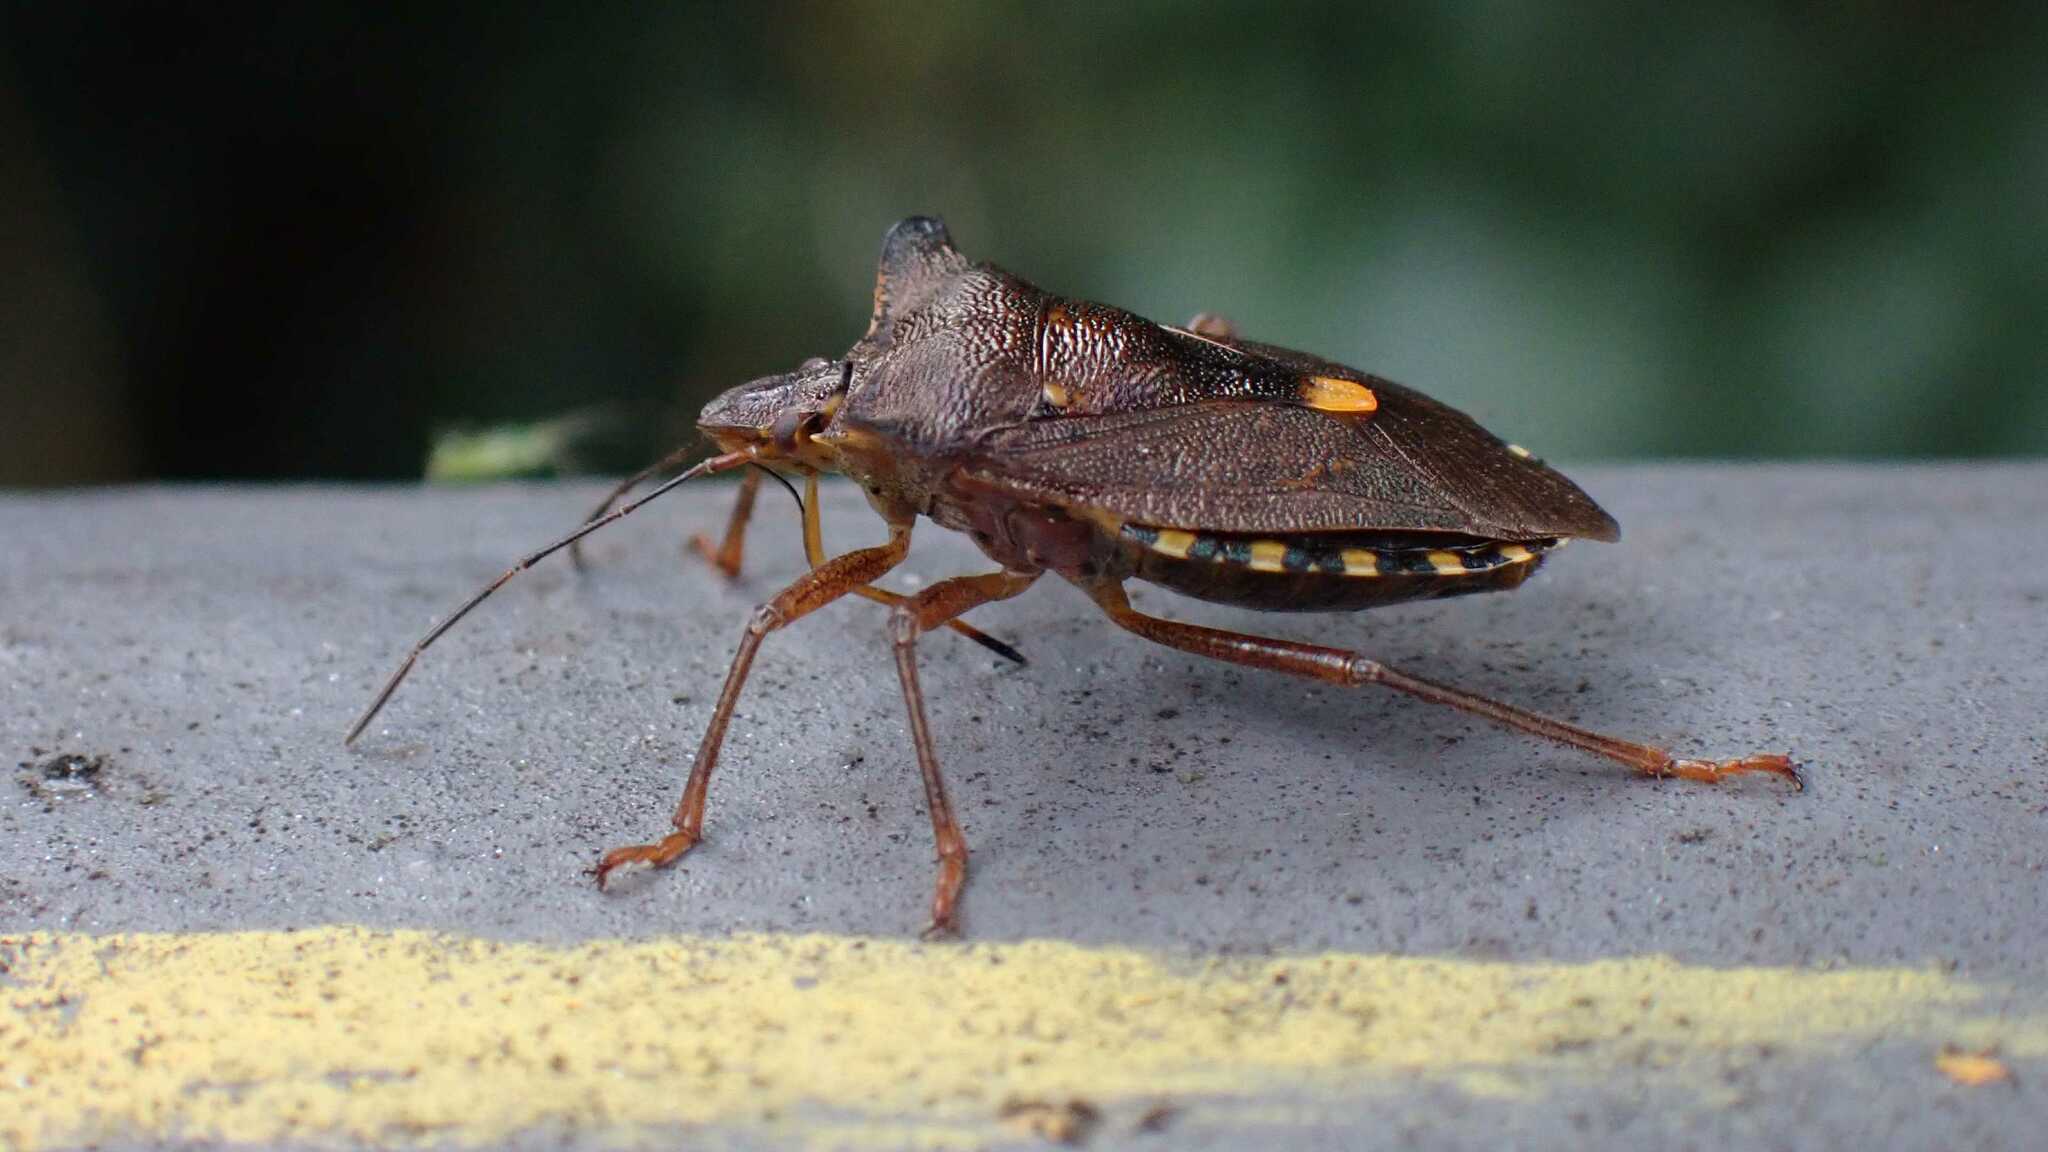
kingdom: Animalia
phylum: Arthropoda
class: Insecta
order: Hemiptera
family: Pentatomidae
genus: Pentatoma
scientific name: Pentatoma rufipes
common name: Forest bug
